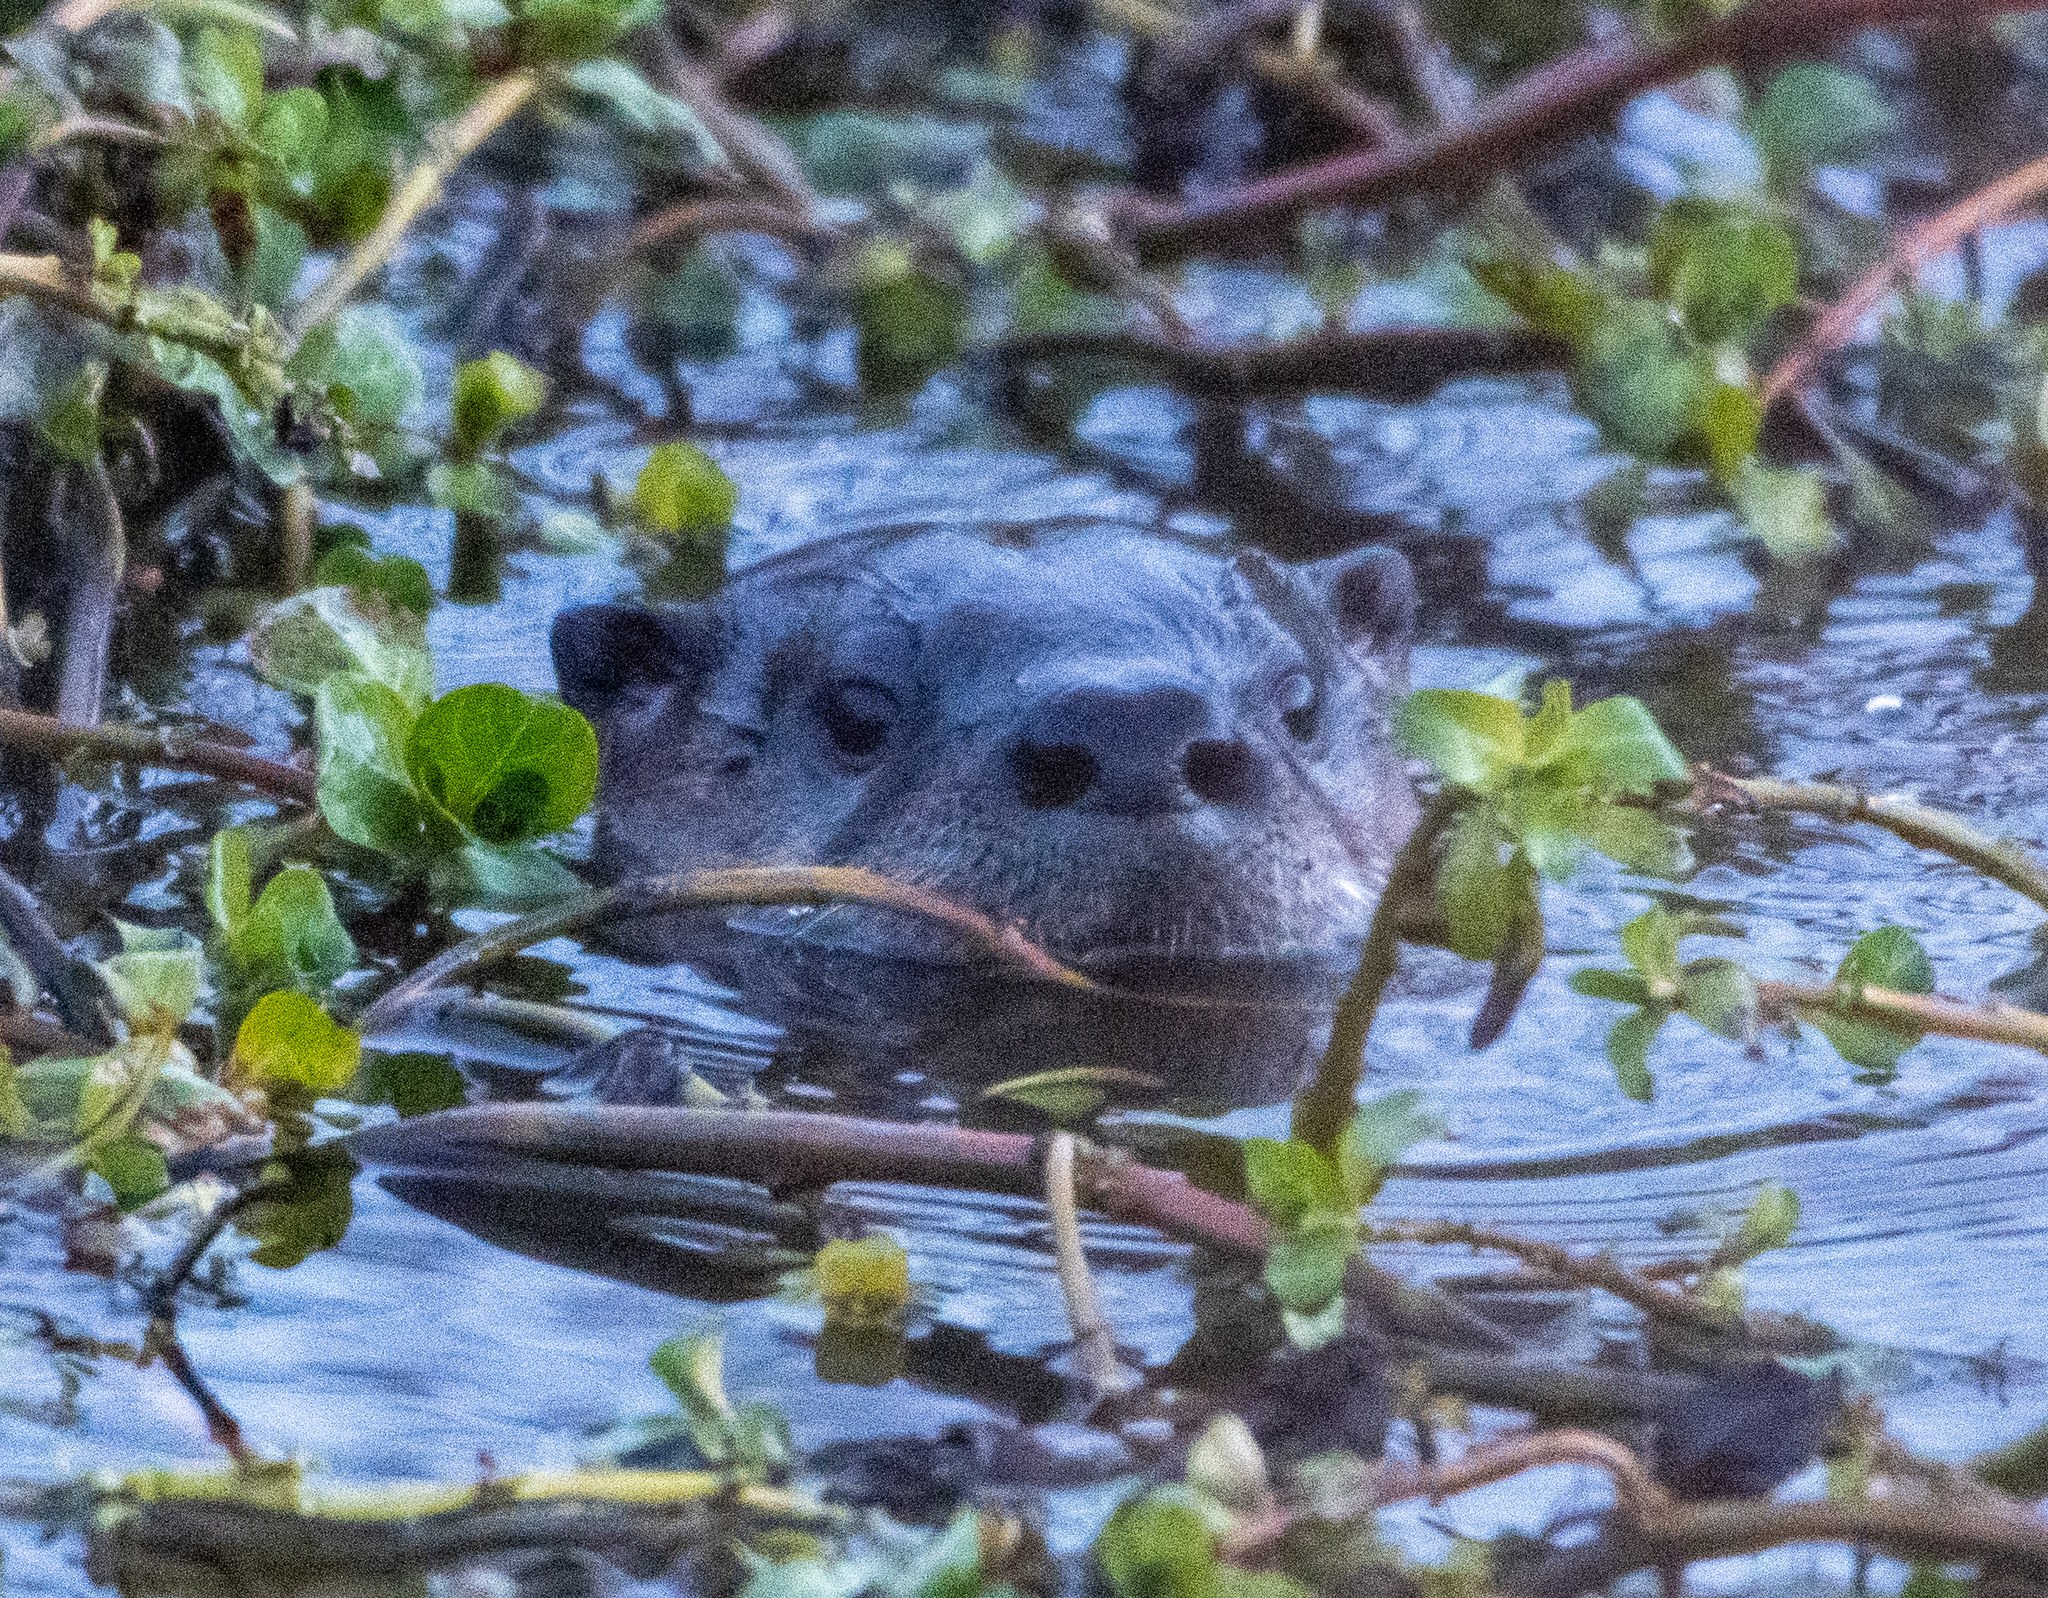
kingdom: Animalia
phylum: Chordata
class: Mammalia
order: Carnivora
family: Mustelidae
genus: Lontra
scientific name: Lontra canadensis
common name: North american river otter
